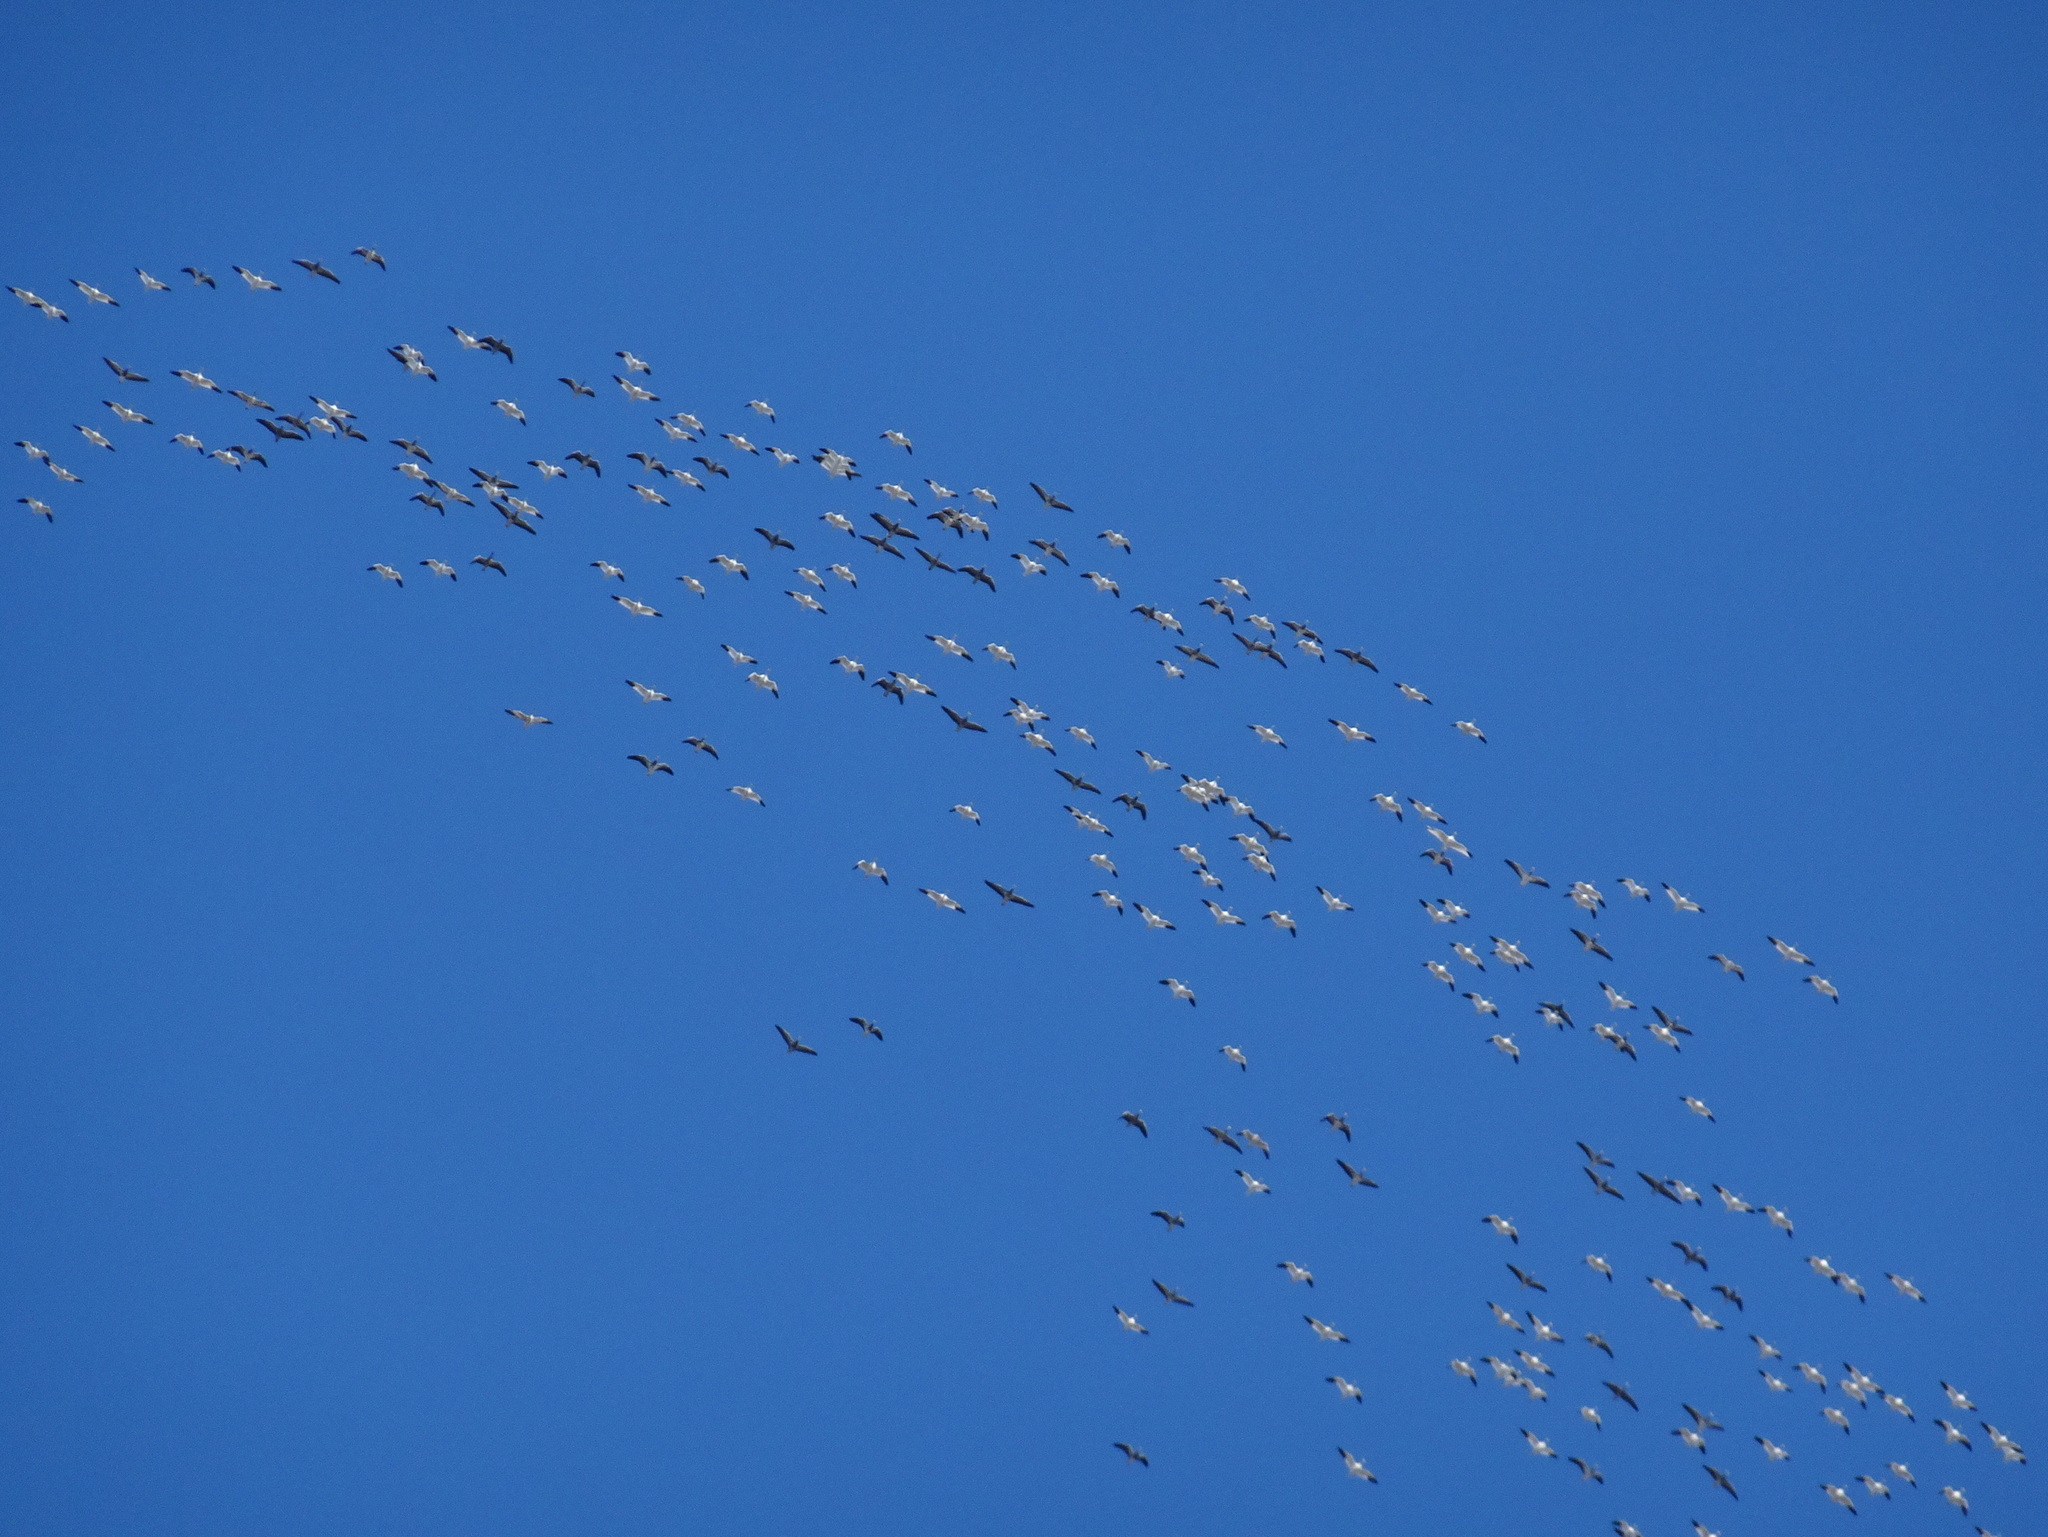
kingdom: Animalia
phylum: Chordata
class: Aves
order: Anseriformes
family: Anatidae
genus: Anser
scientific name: Anser caerulescens
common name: Snow goose
